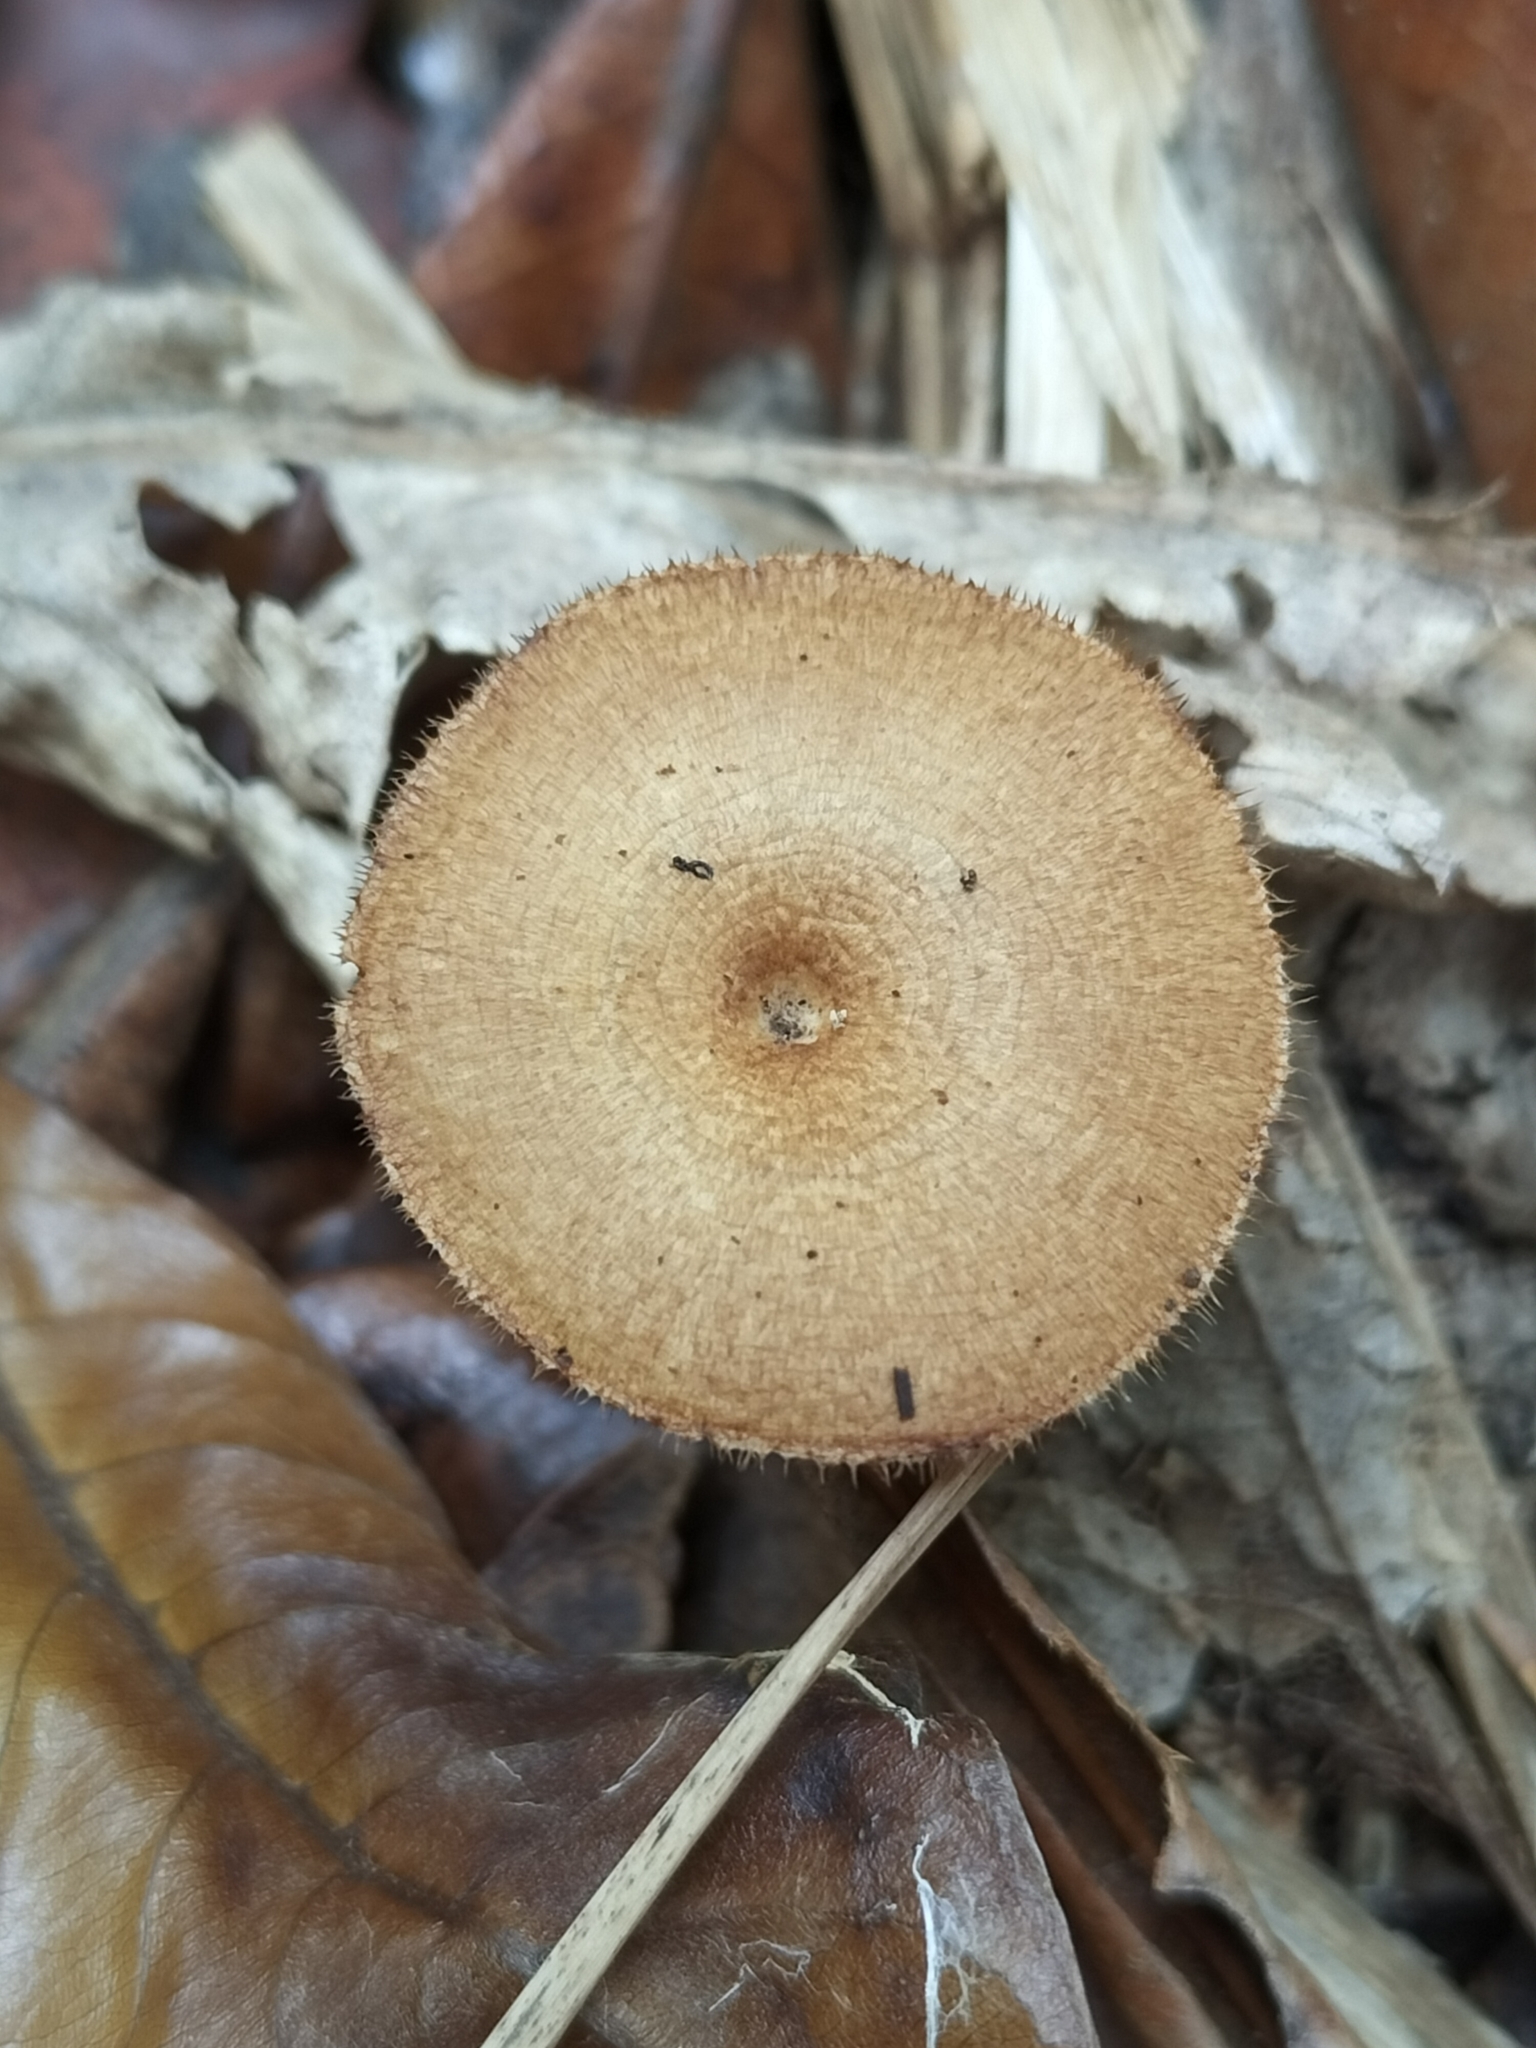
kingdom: Fungi
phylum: Basidiomycota
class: Agaricomycetes
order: Polyporales
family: Polyporaceae
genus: Lentinus
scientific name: Lentinus arcularius
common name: Spring polypore
